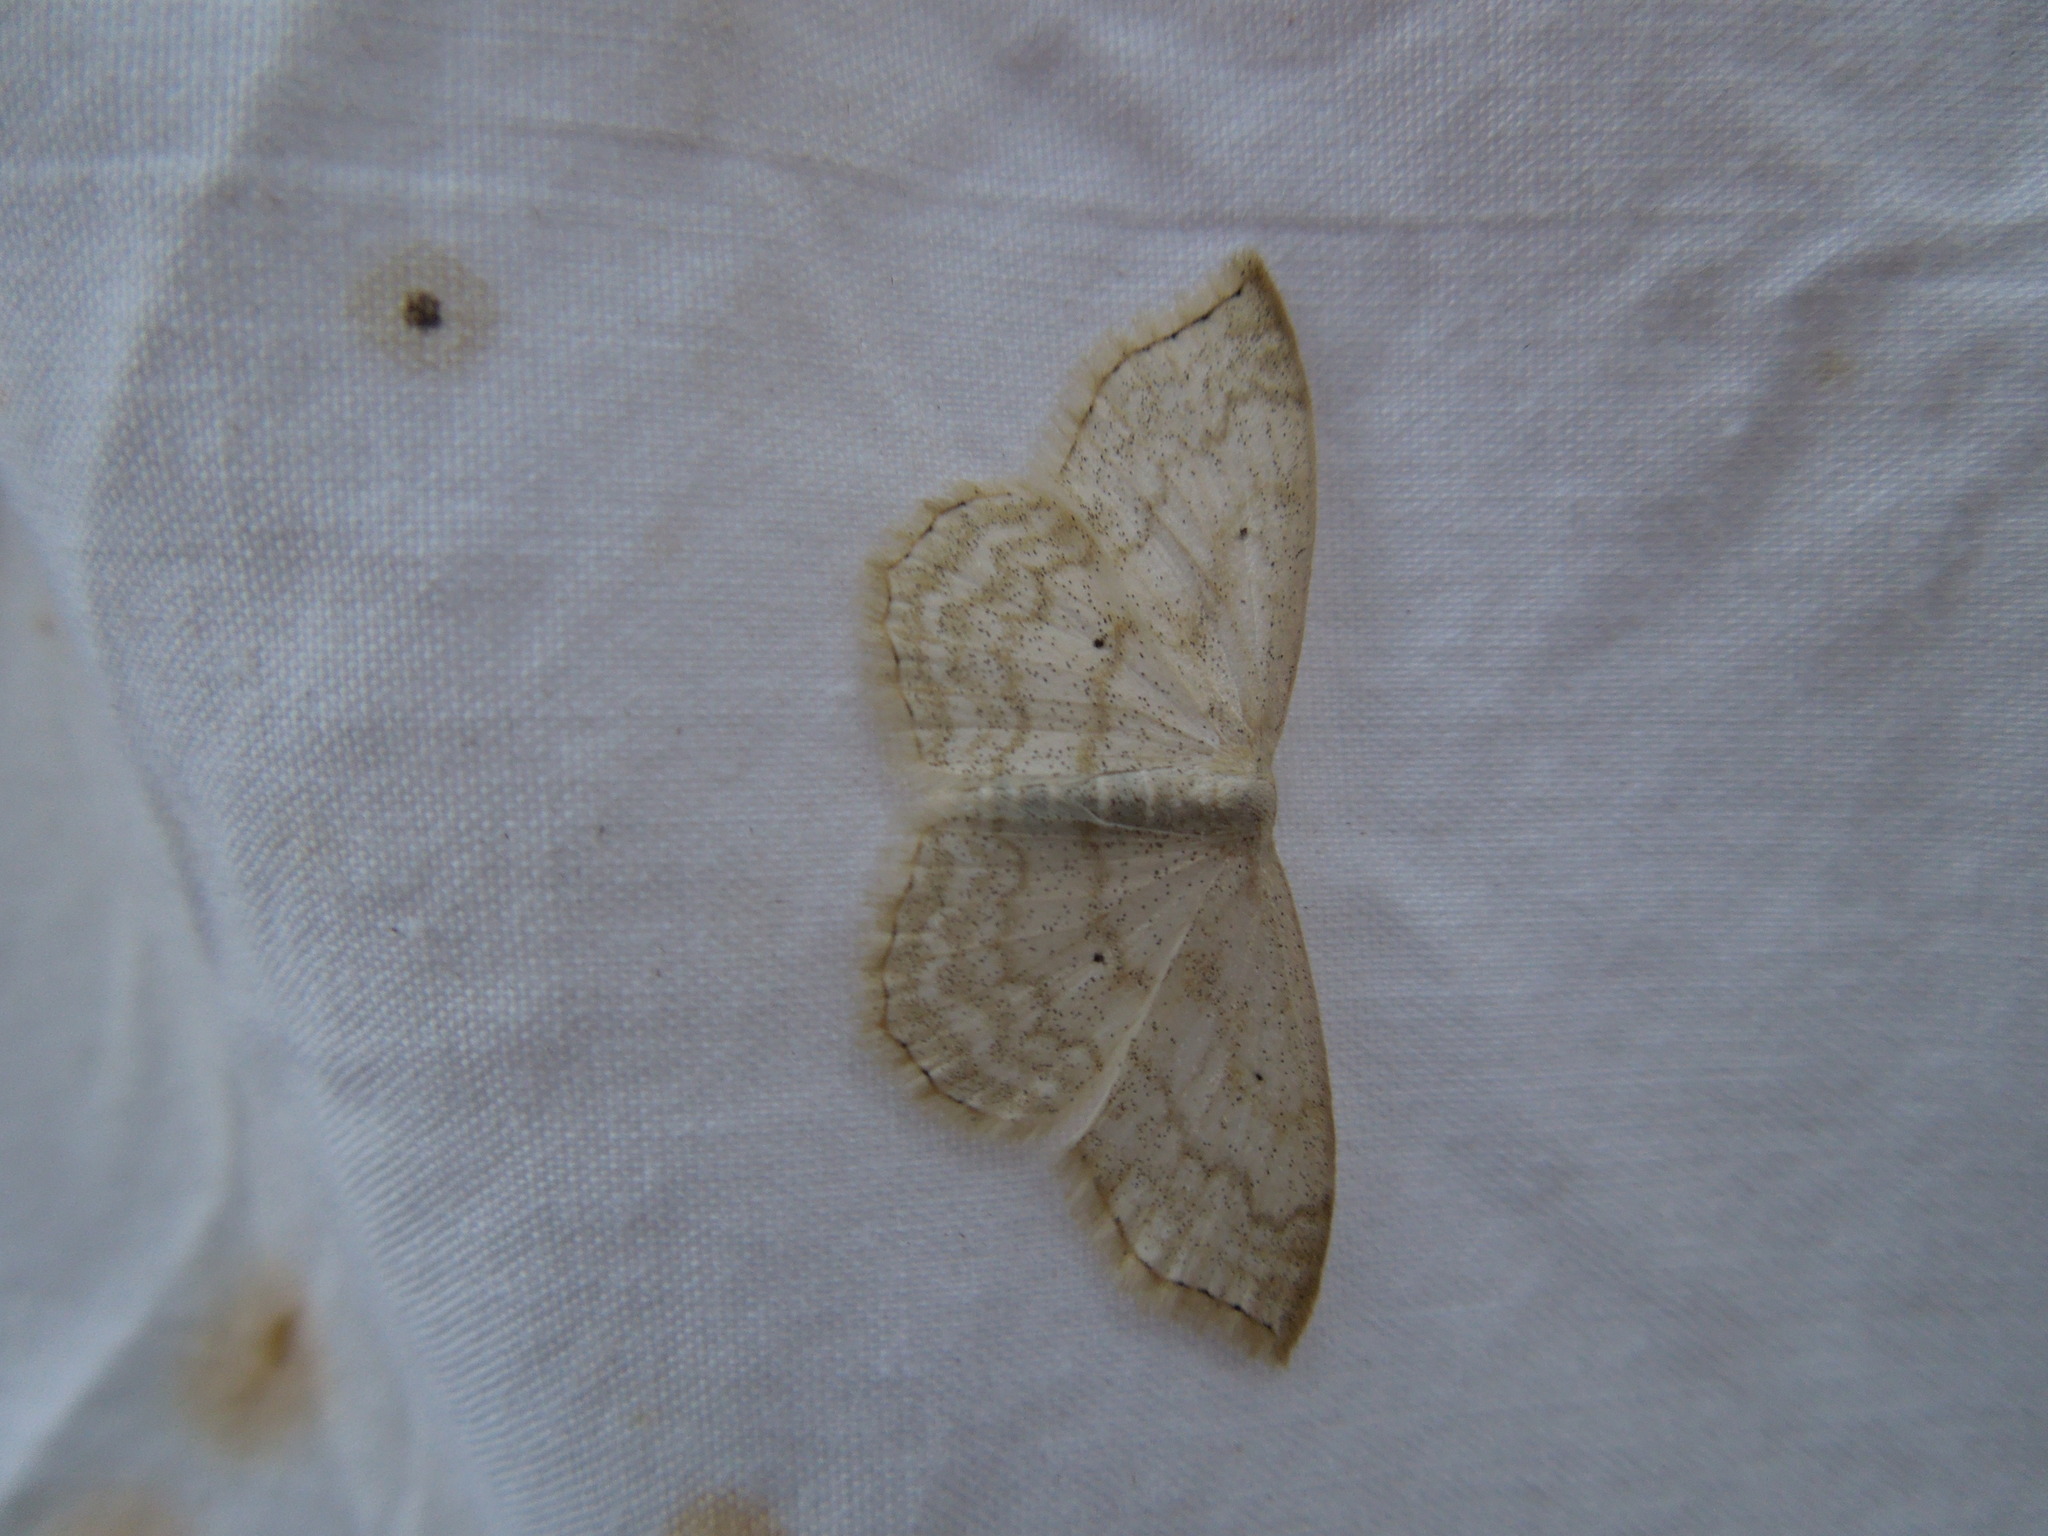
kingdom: Animalia
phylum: Arthropoda
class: Insecta
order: Lepidoptera
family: Geometridae
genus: Scopula
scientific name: Scopula limboundata
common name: Large lace border
